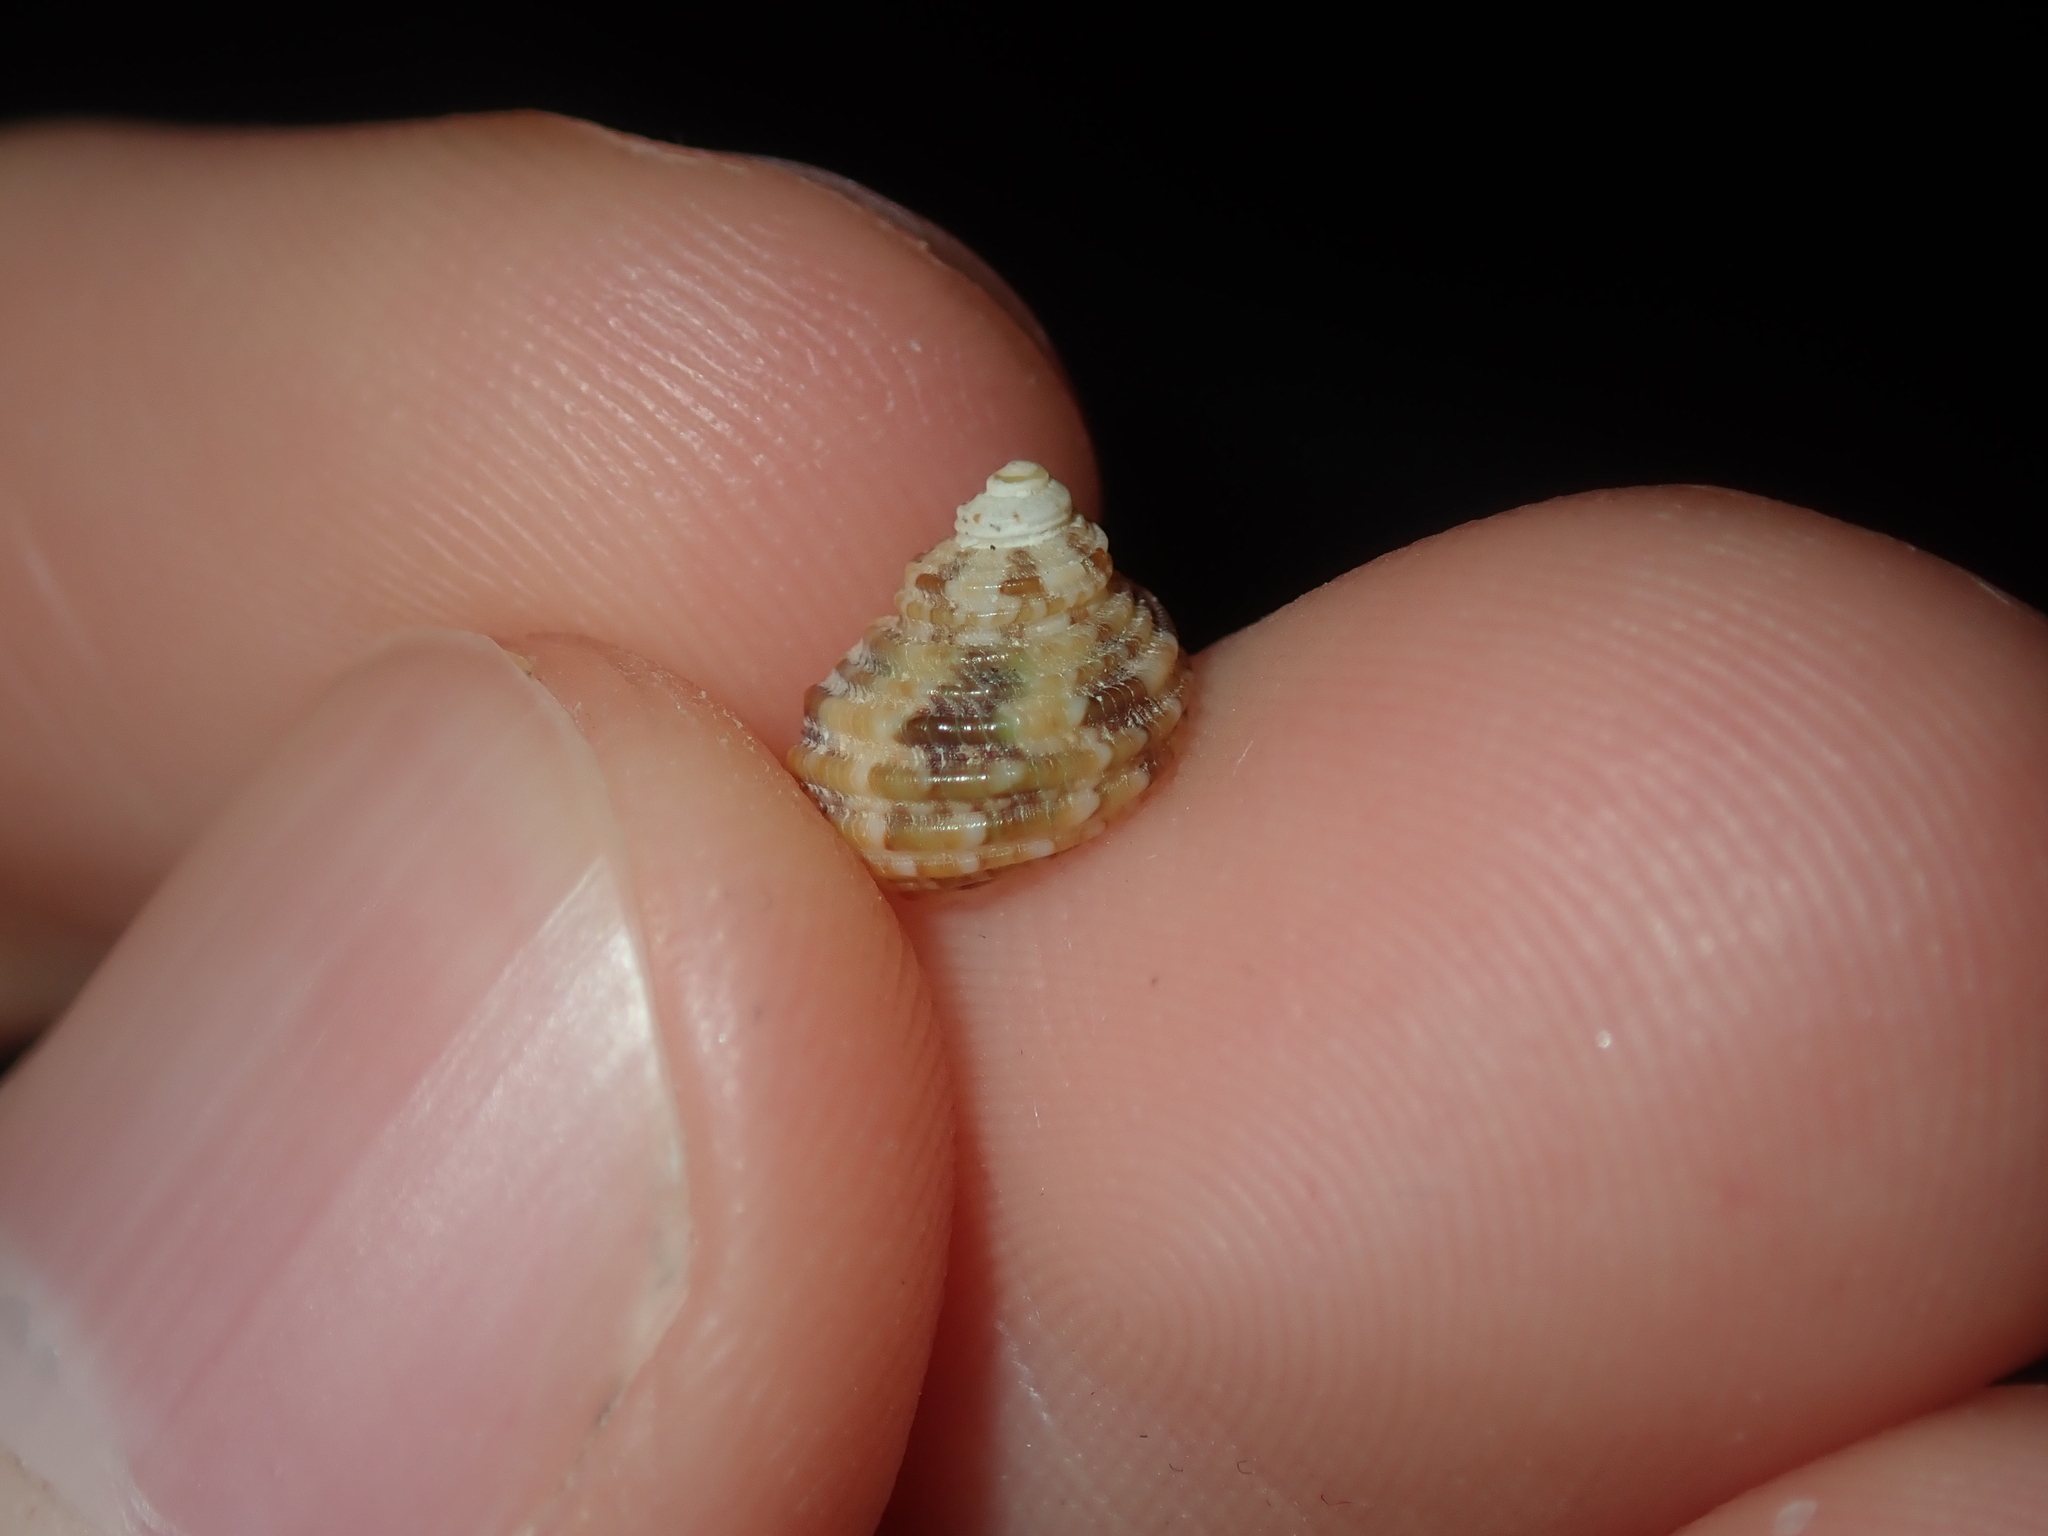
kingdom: Animalia
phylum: Mollusca
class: Gastropoda
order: Trochida
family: Turbinidae
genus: Turbo
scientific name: Turbo kenwilliamsi
